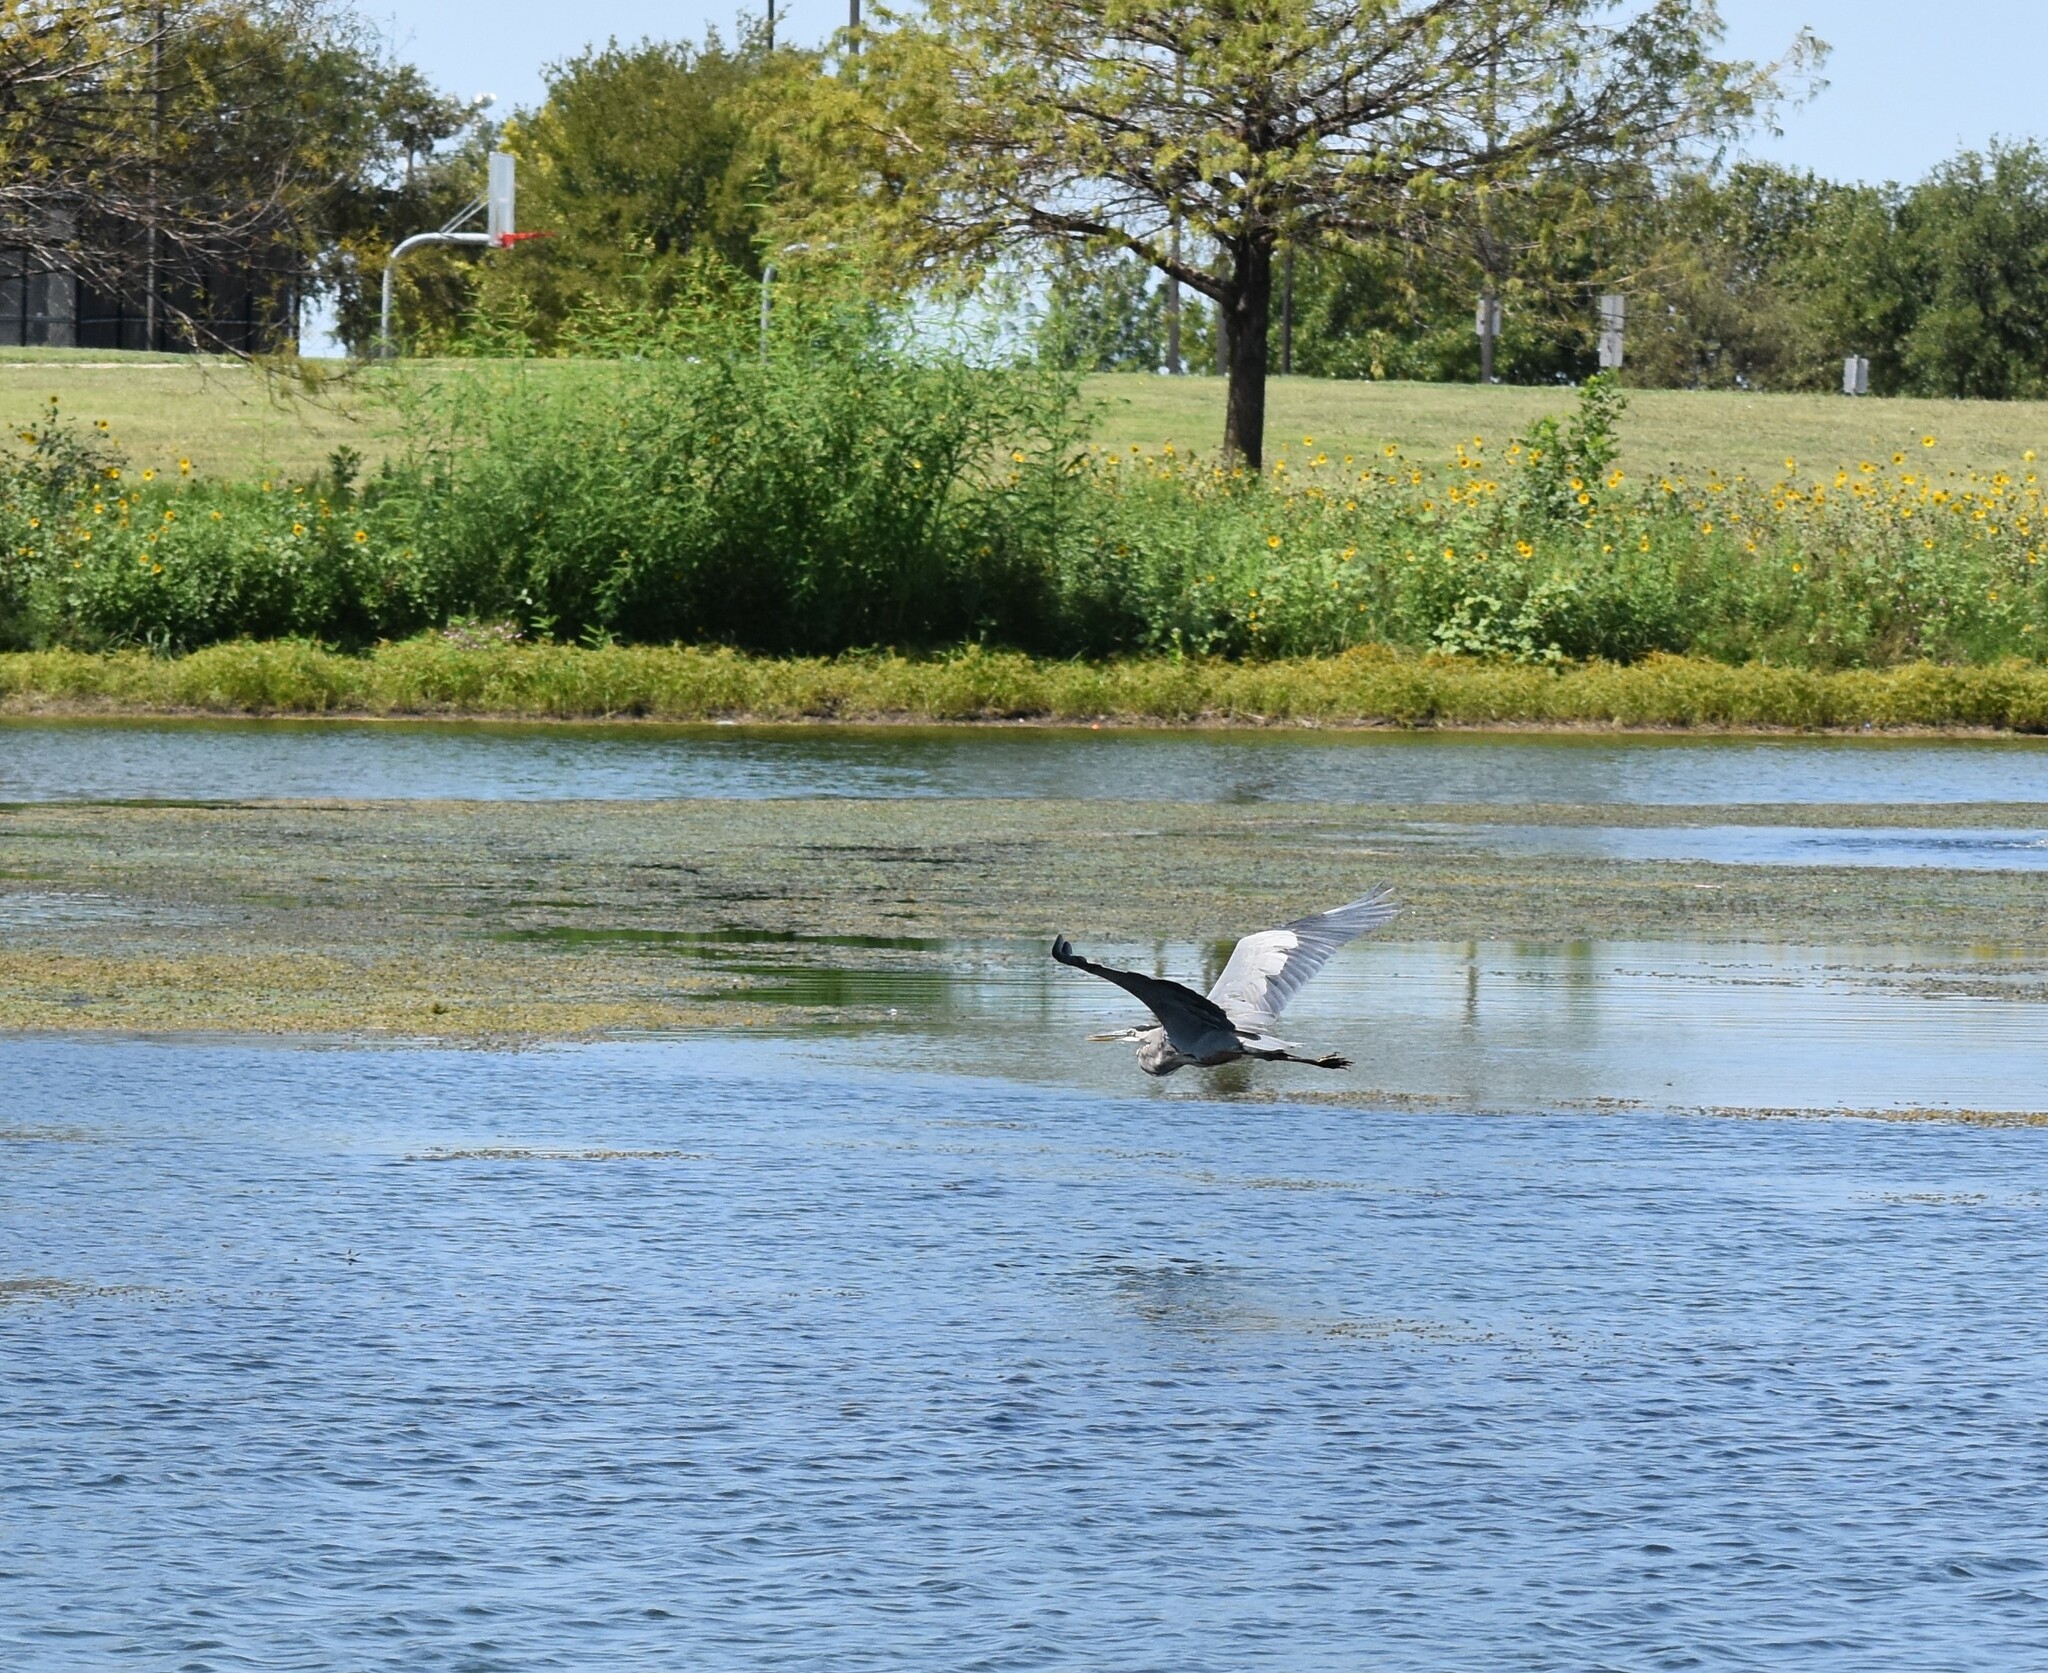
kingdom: Animalia
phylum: Chordata
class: Aves
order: Pelecaniformes
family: Ardeidae
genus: Ardea
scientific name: Ardea herodias
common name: Great blue heron
